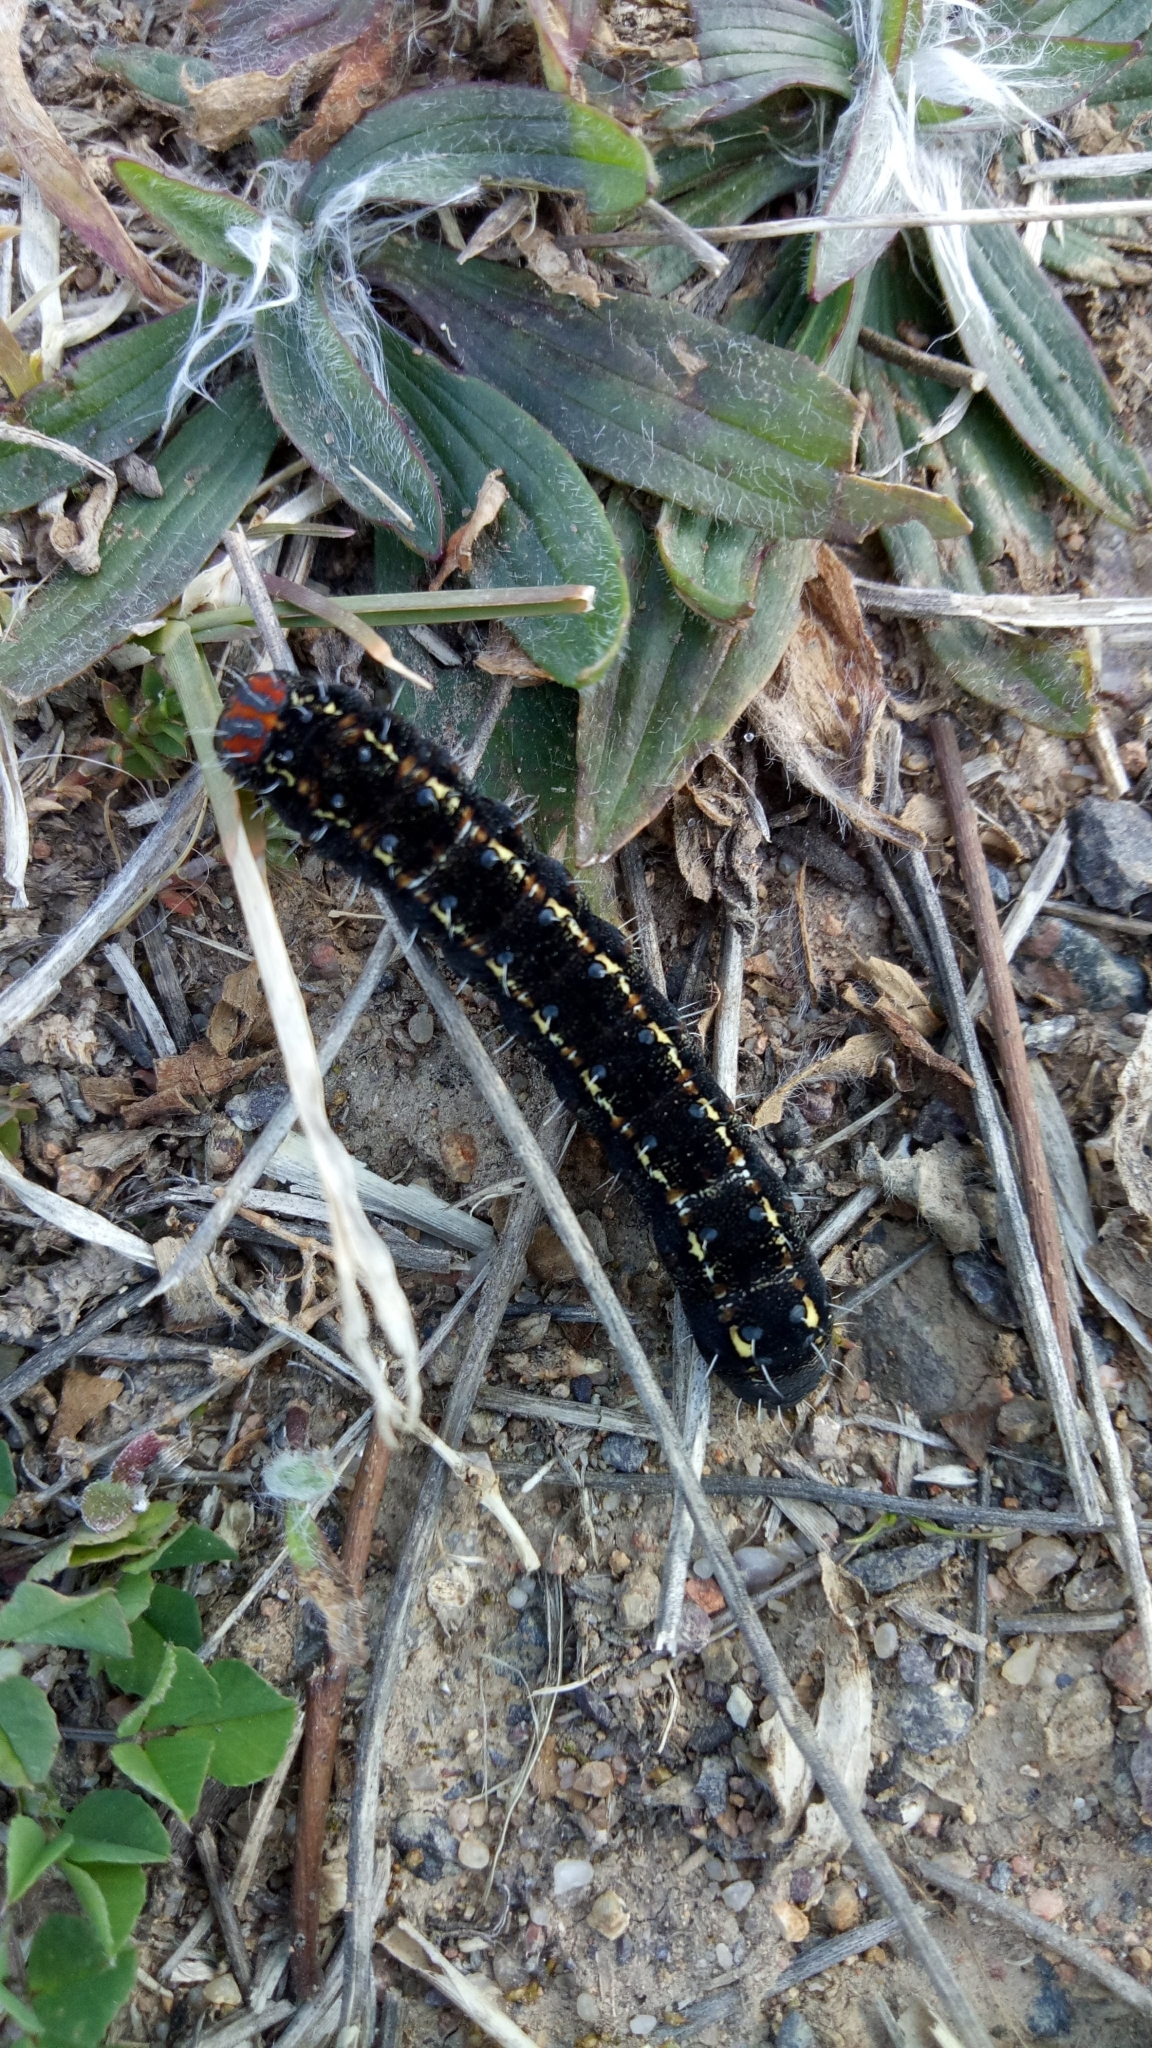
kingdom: Animalia
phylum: Arthropoda
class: Insecta
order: Lepidoptera
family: Noctuidae
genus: Apina
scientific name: Apina callisto
